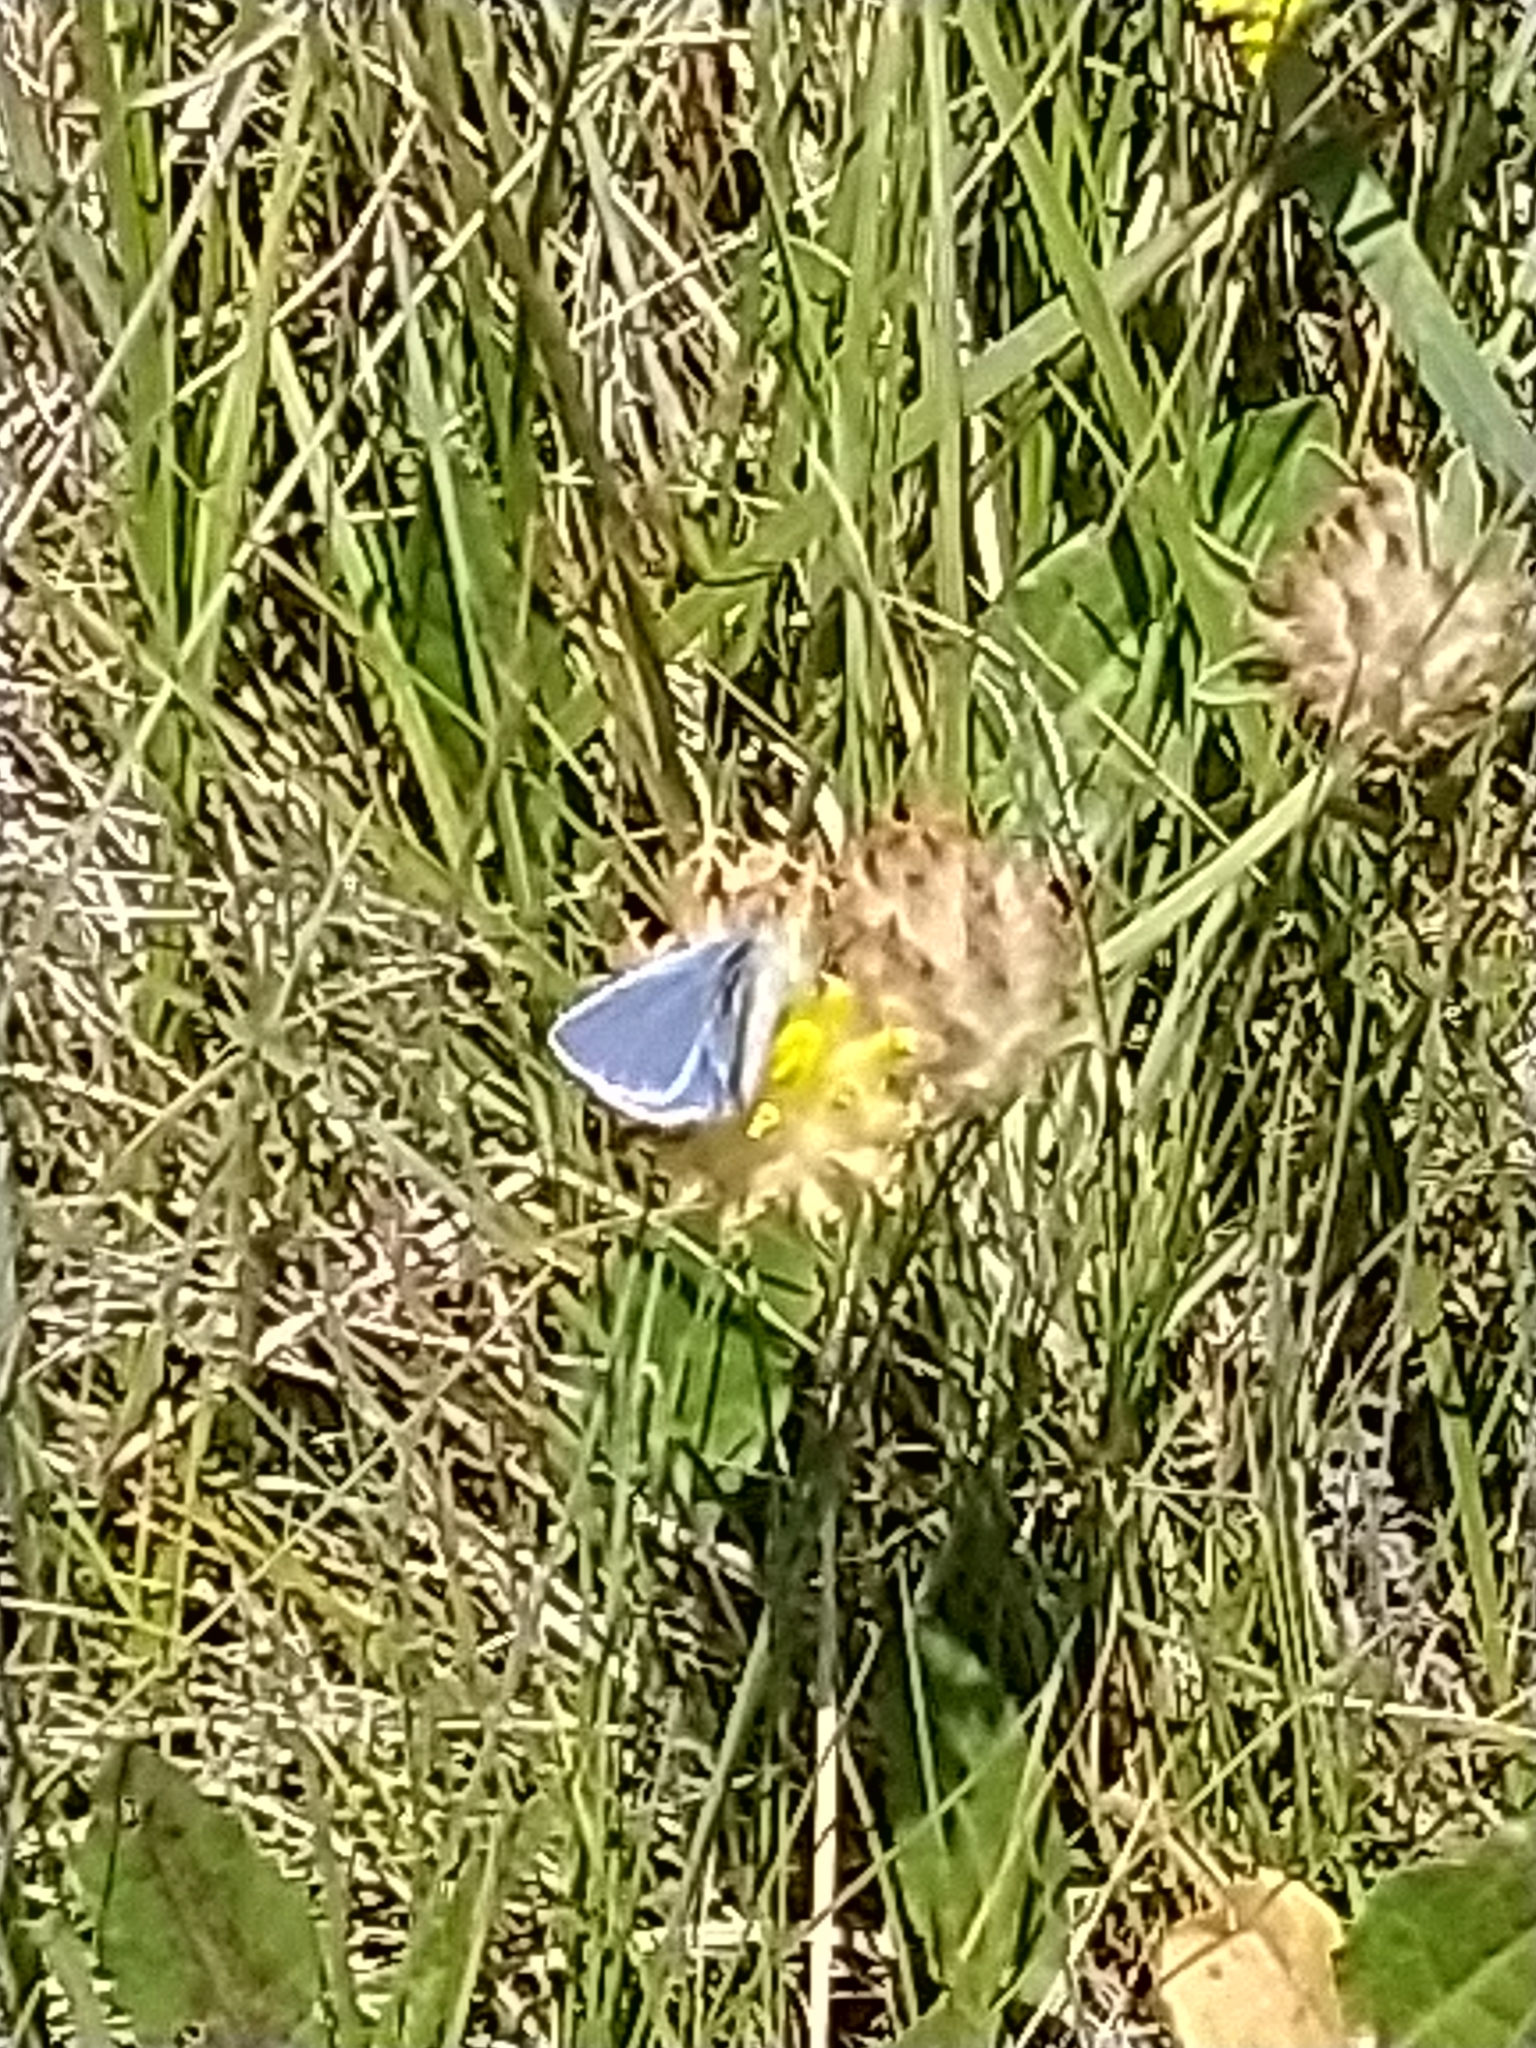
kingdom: Animalia
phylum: Arthropoda
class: Insecta
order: Lepidoptera
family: Lycaenidae
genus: Polyommatus
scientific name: Polyommatus icarus
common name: Common blue
